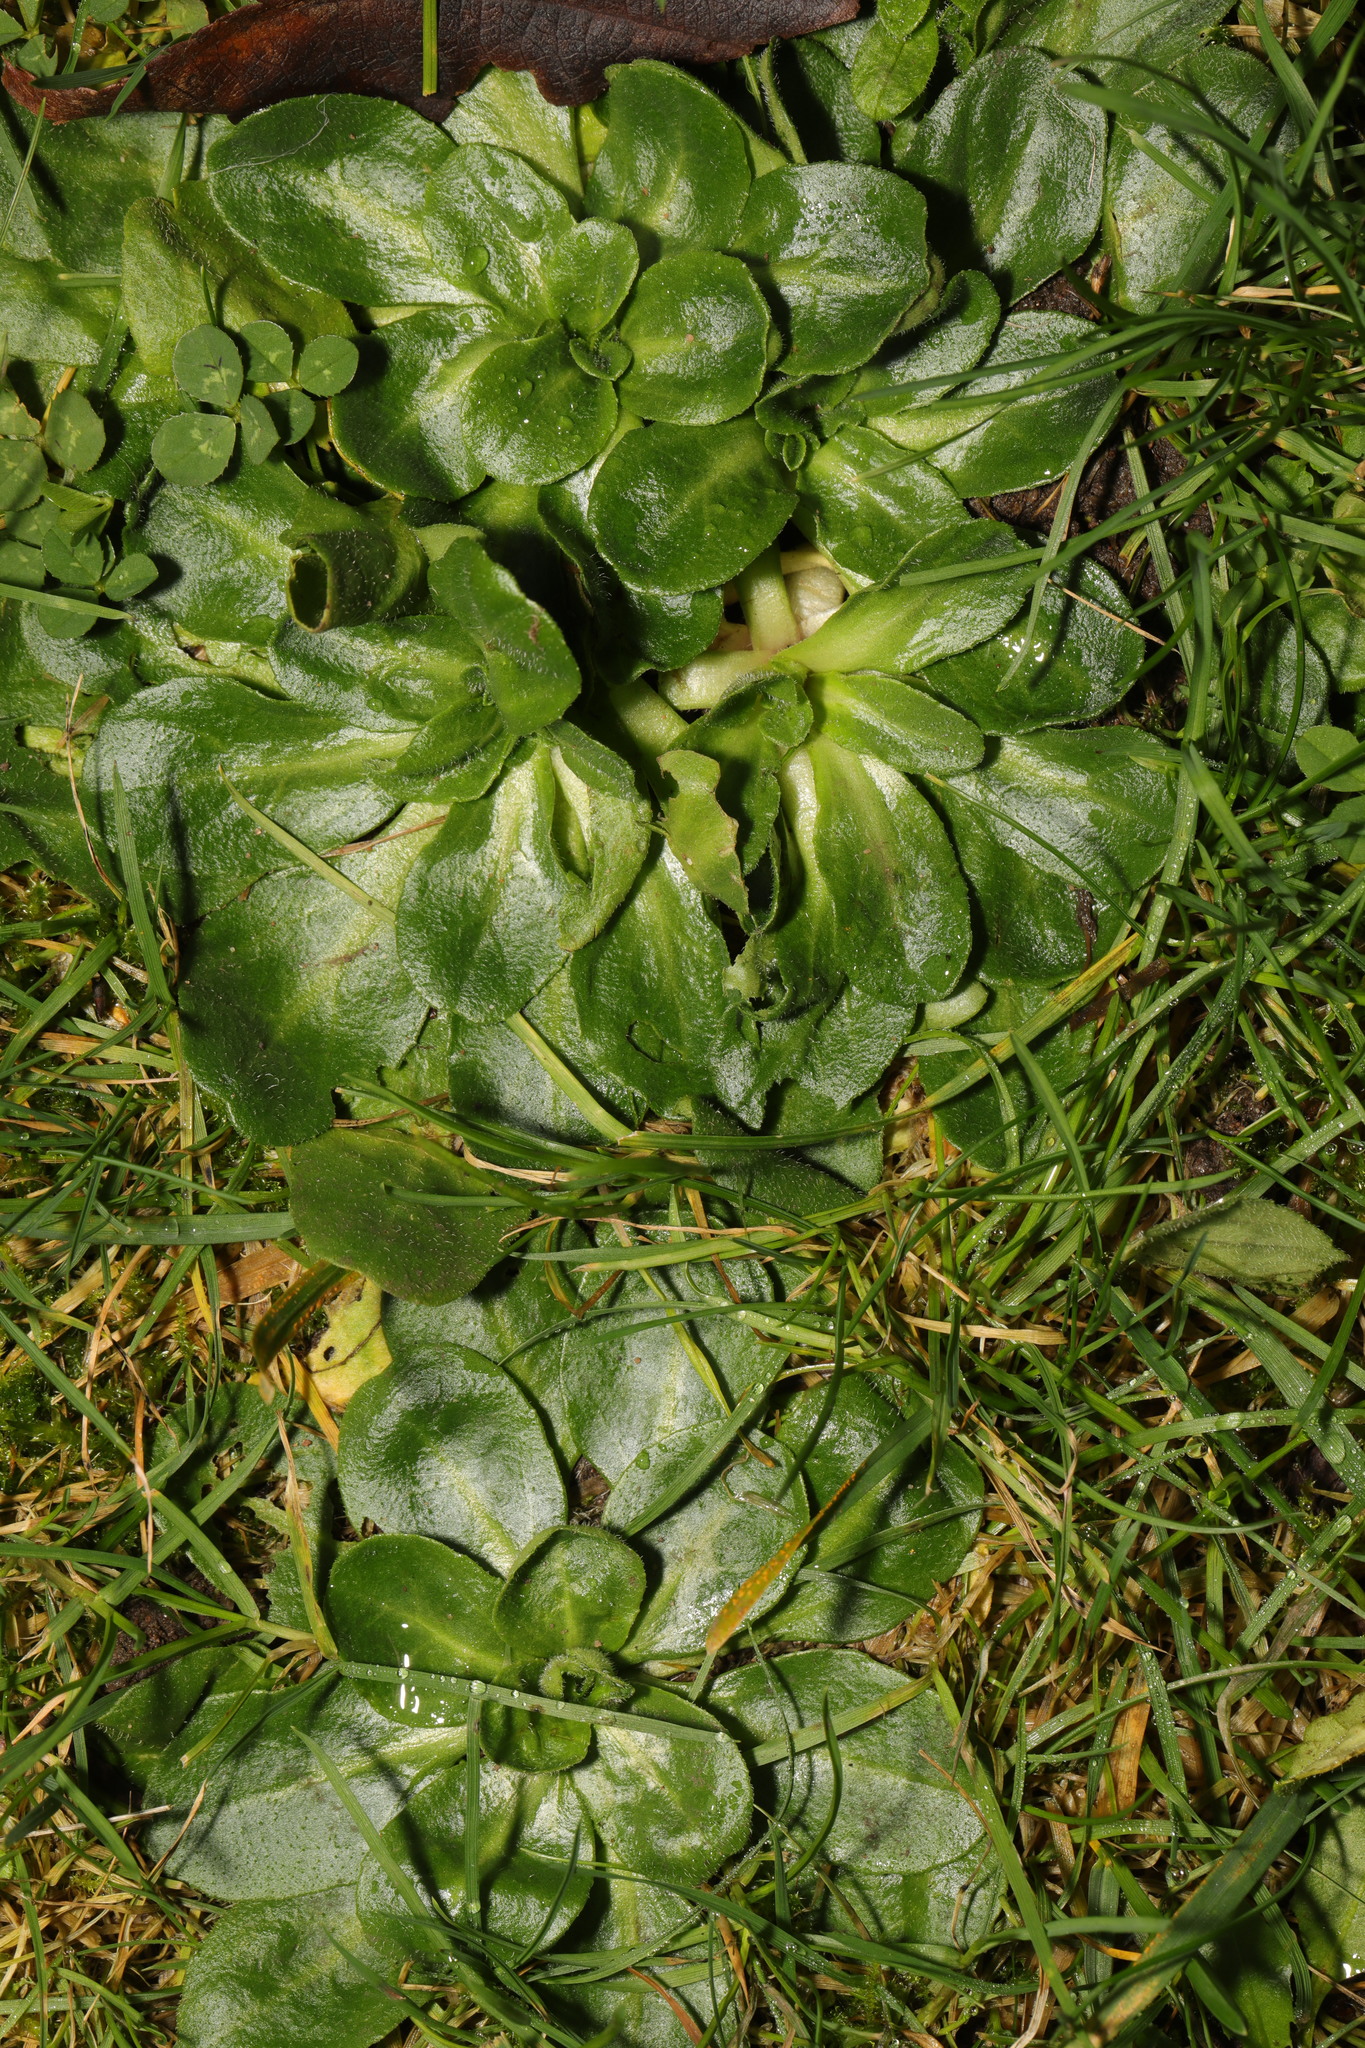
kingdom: Plantae
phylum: Tracheophyta
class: Magnoliopsida
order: Asterales
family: Asteraceae
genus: Bellis
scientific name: Bellis perennis
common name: Lawndaisy
